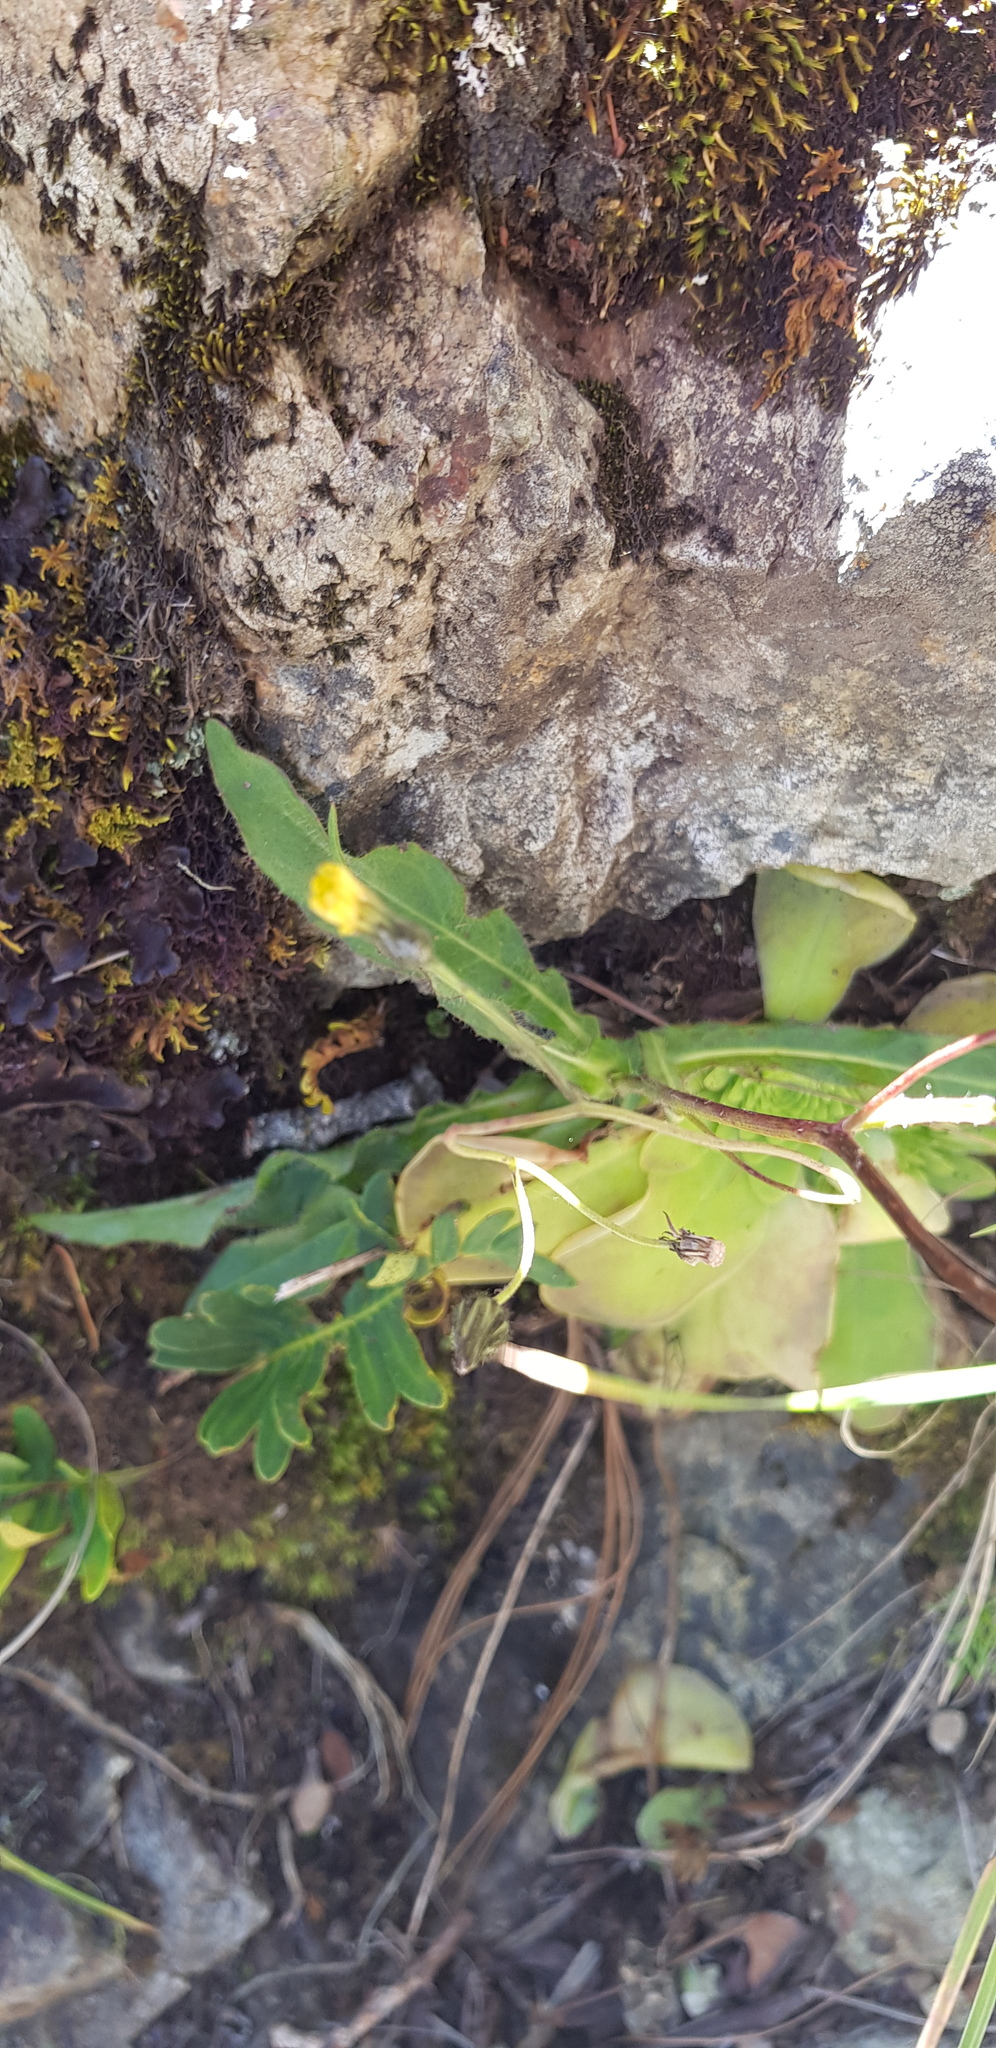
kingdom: Plantae
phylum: Tracheophyta
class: Magnoliopsida
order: Asterales
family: Asteraceae
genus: Hieracium
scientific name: Hieracium abscissum
